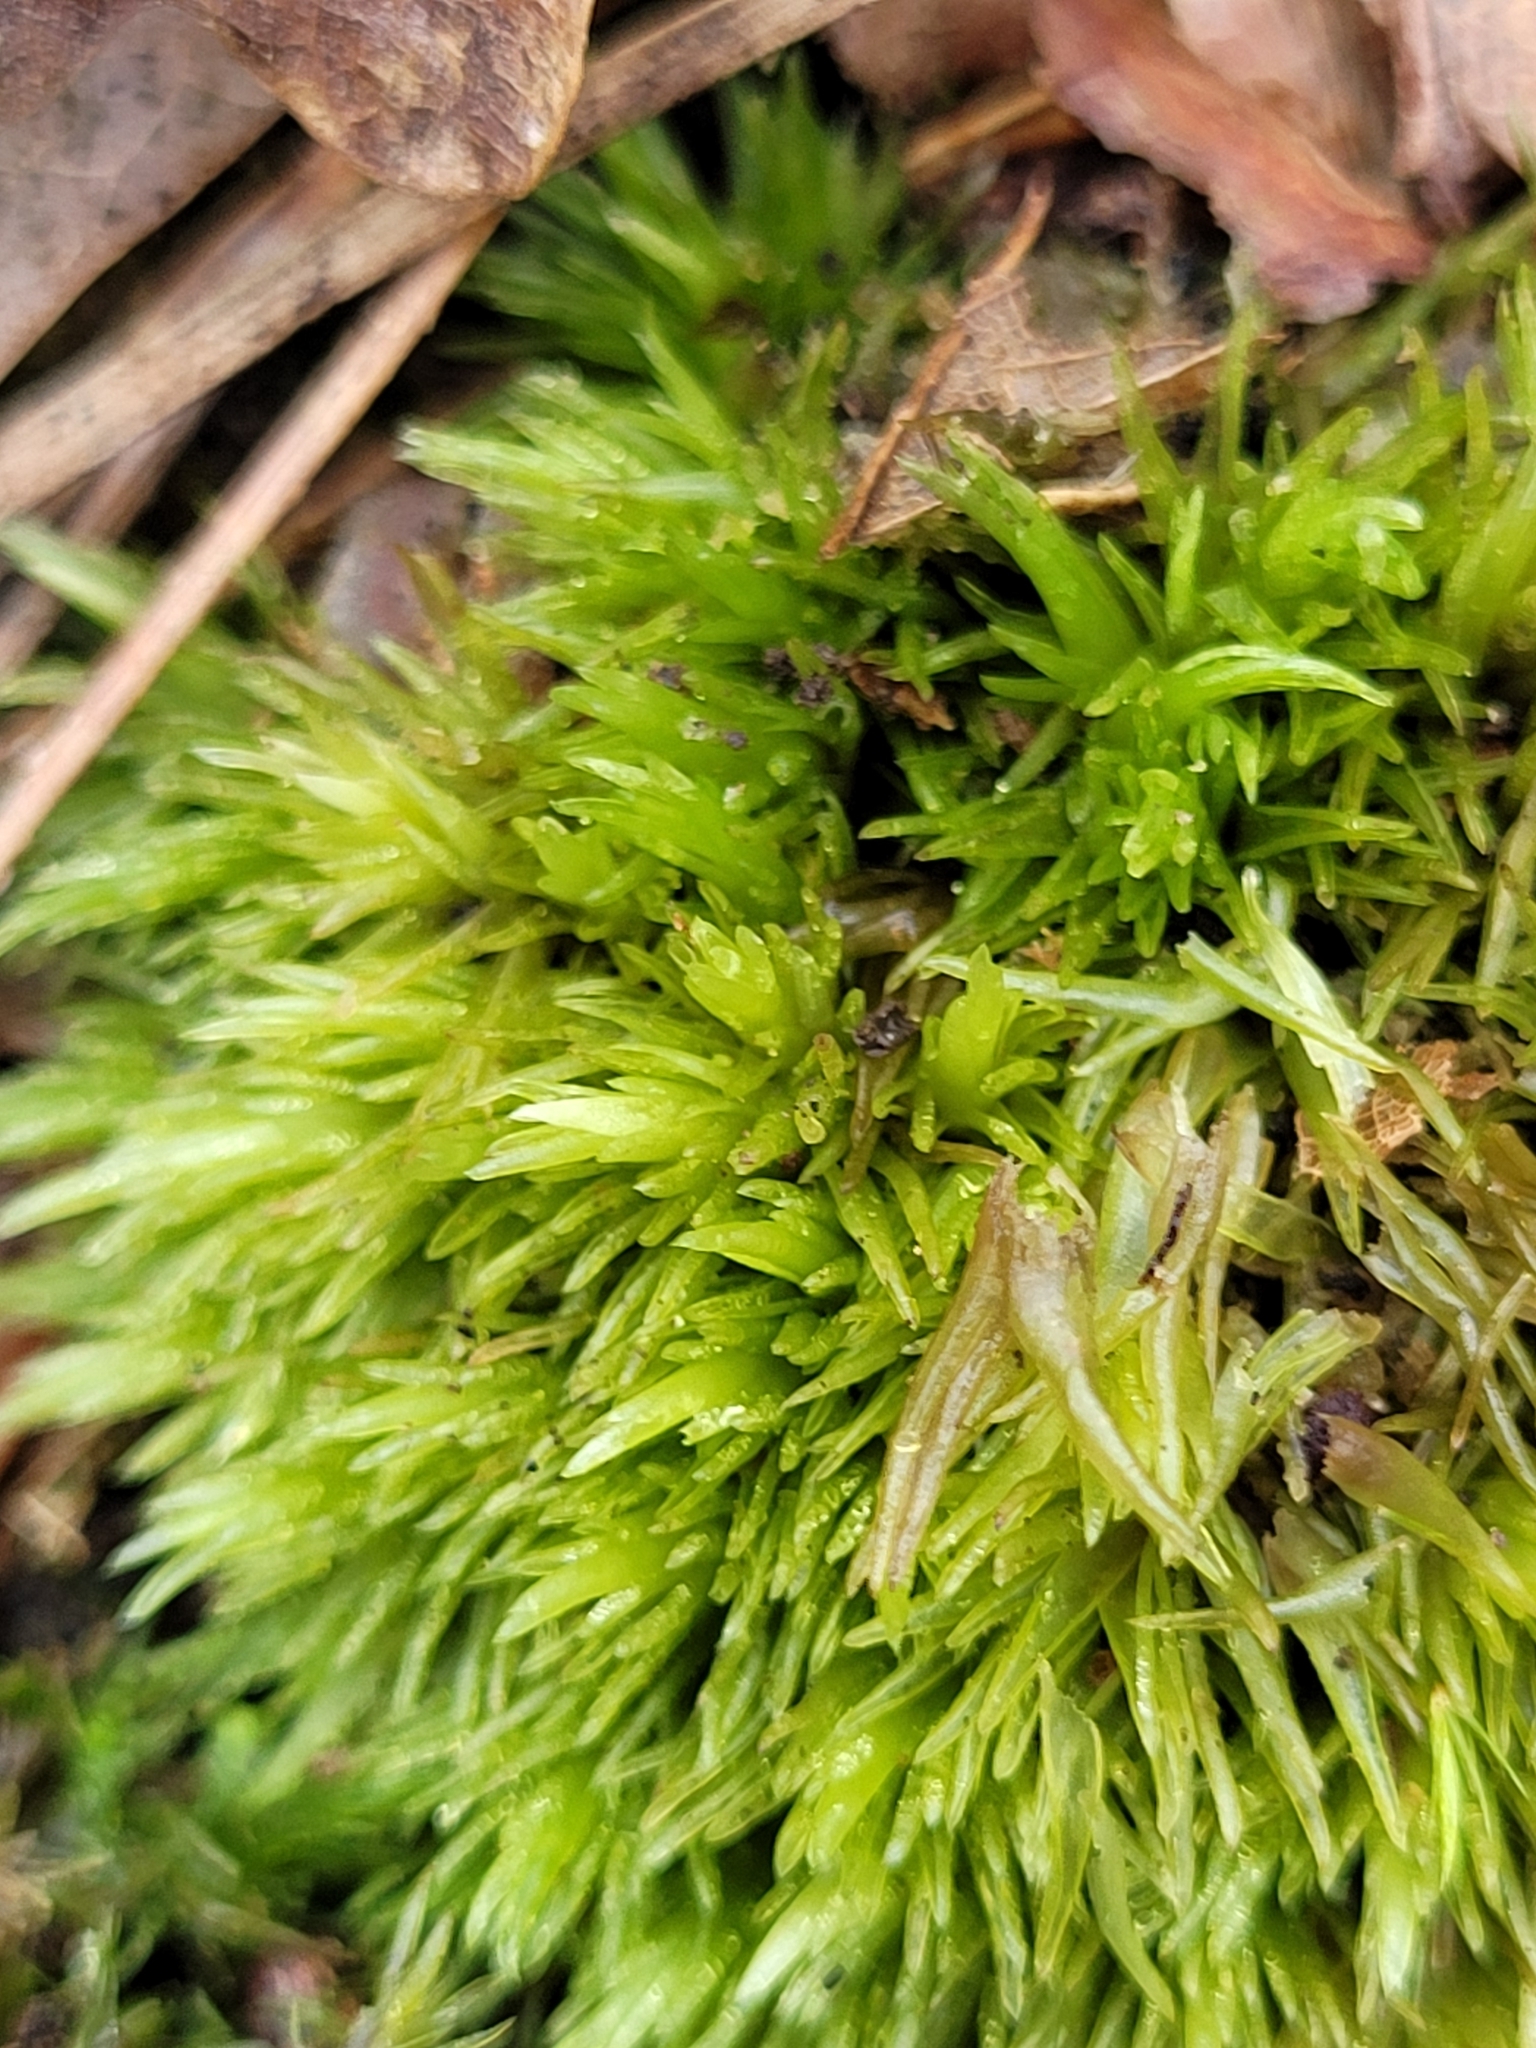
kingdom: Plantae
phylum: Bryophyta
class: Bryopsida
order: Dicranales
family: Leucobryaceae
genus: Leucobryum
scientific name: Leucobryum glaucum
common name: Large white-moss
